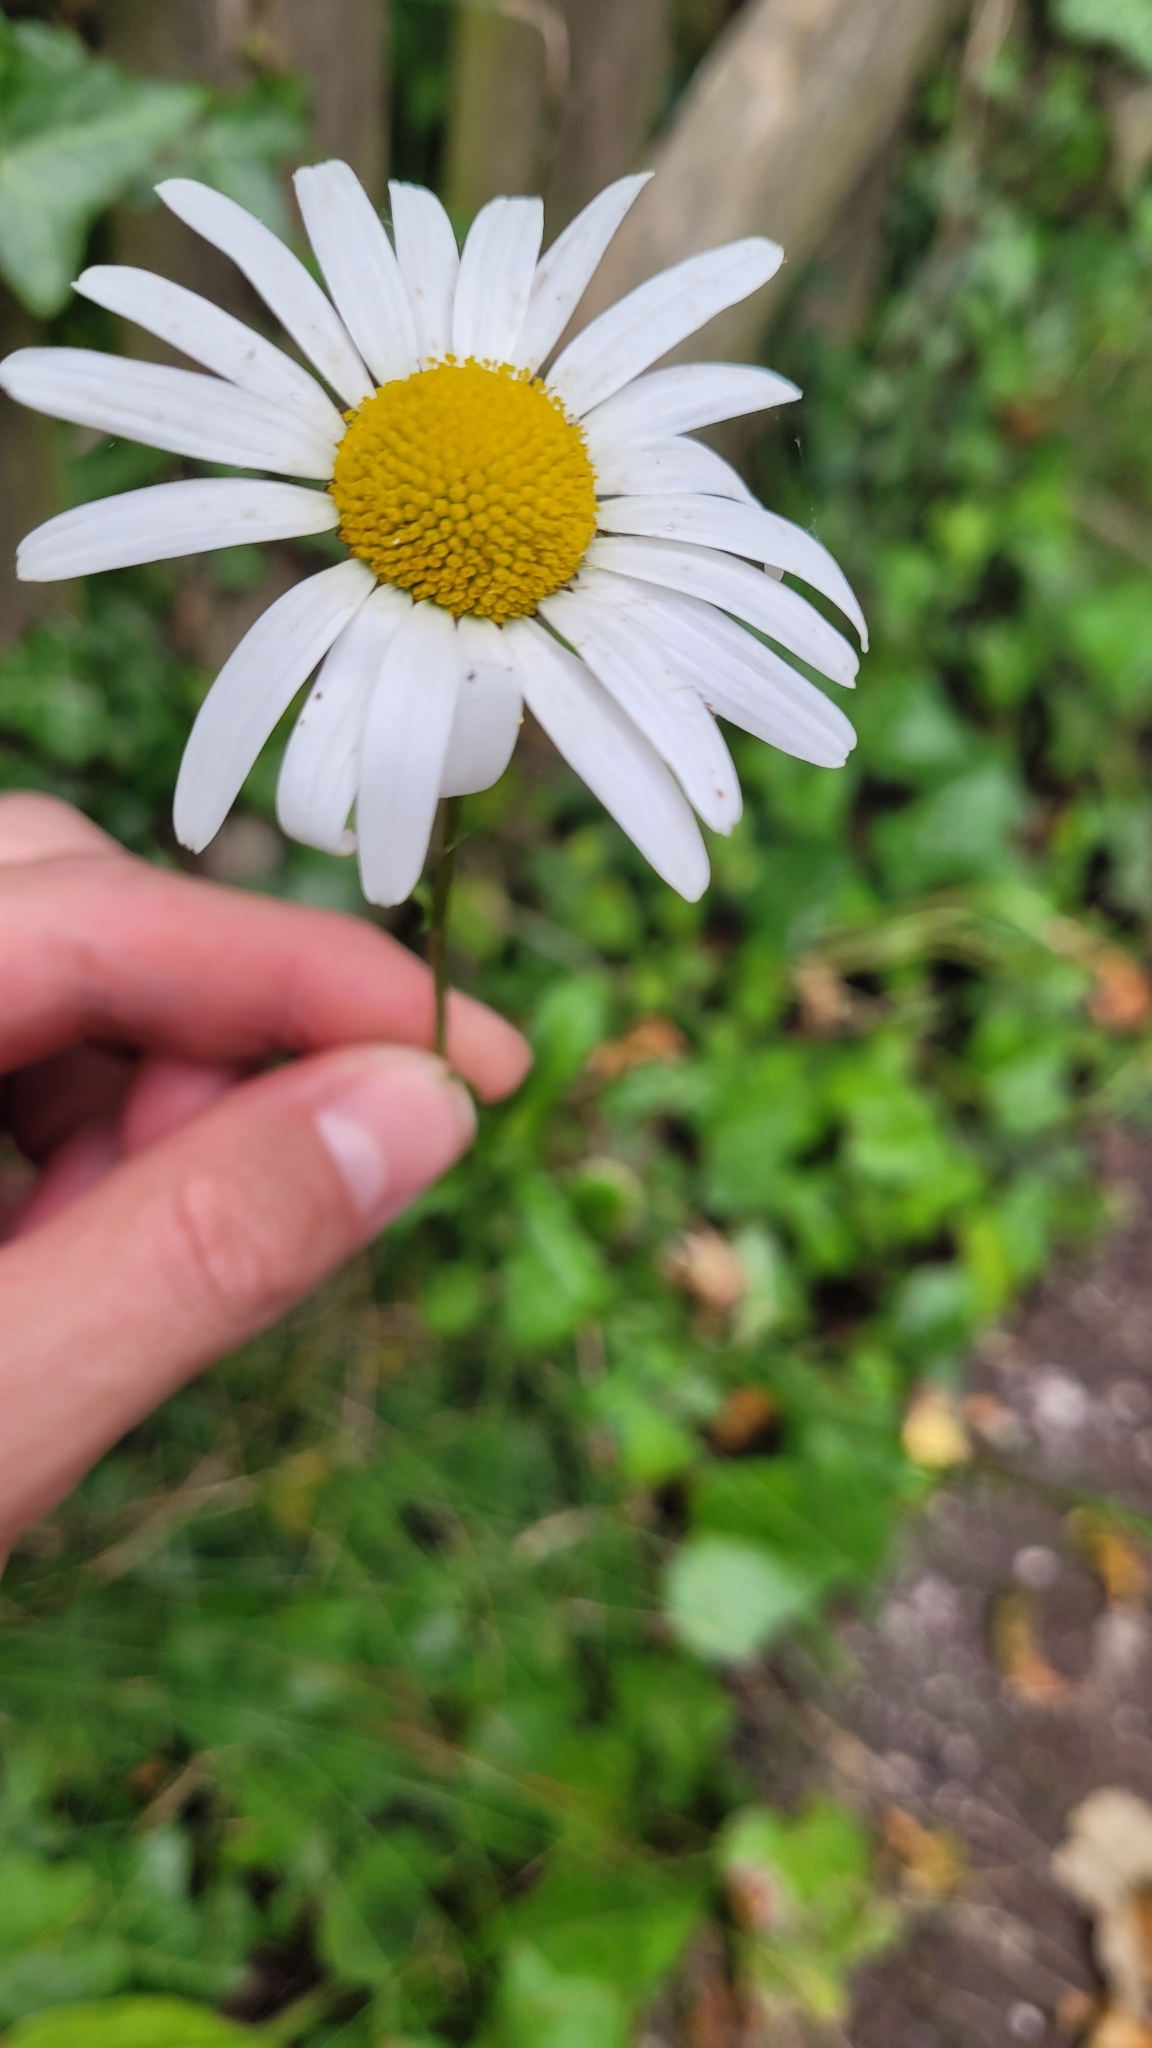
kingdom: Plantae
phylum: Tracheophyta
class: Magnoliopsida
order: Asterales
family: Asteraceae
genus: Leucanthemum
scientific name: Leucanthemum vulgare
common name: Oxeye daisy
